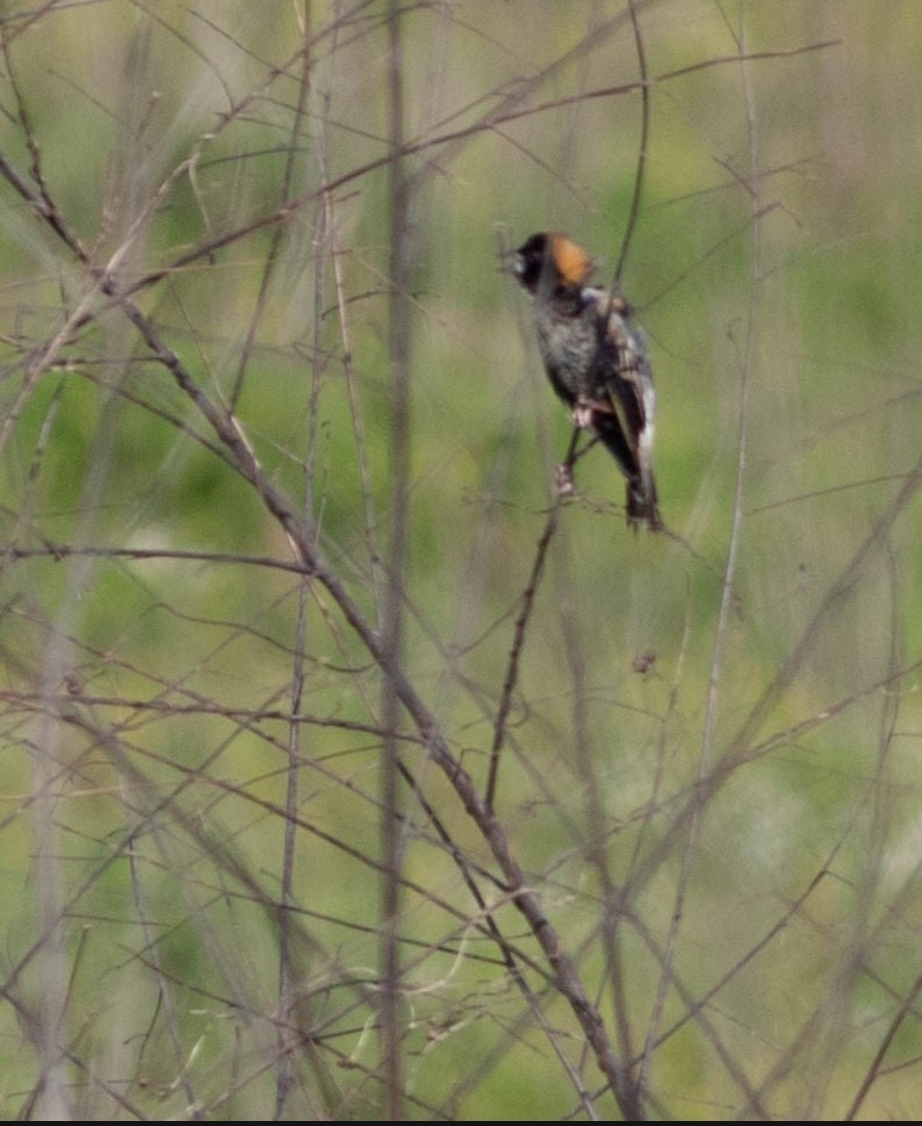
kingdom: Animalia
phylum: Chordata
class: Aves
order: Passeriformes
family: Icteridae
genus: Dolichonyx
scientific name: Dolichonyx oryzivorus
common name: Bobolink
